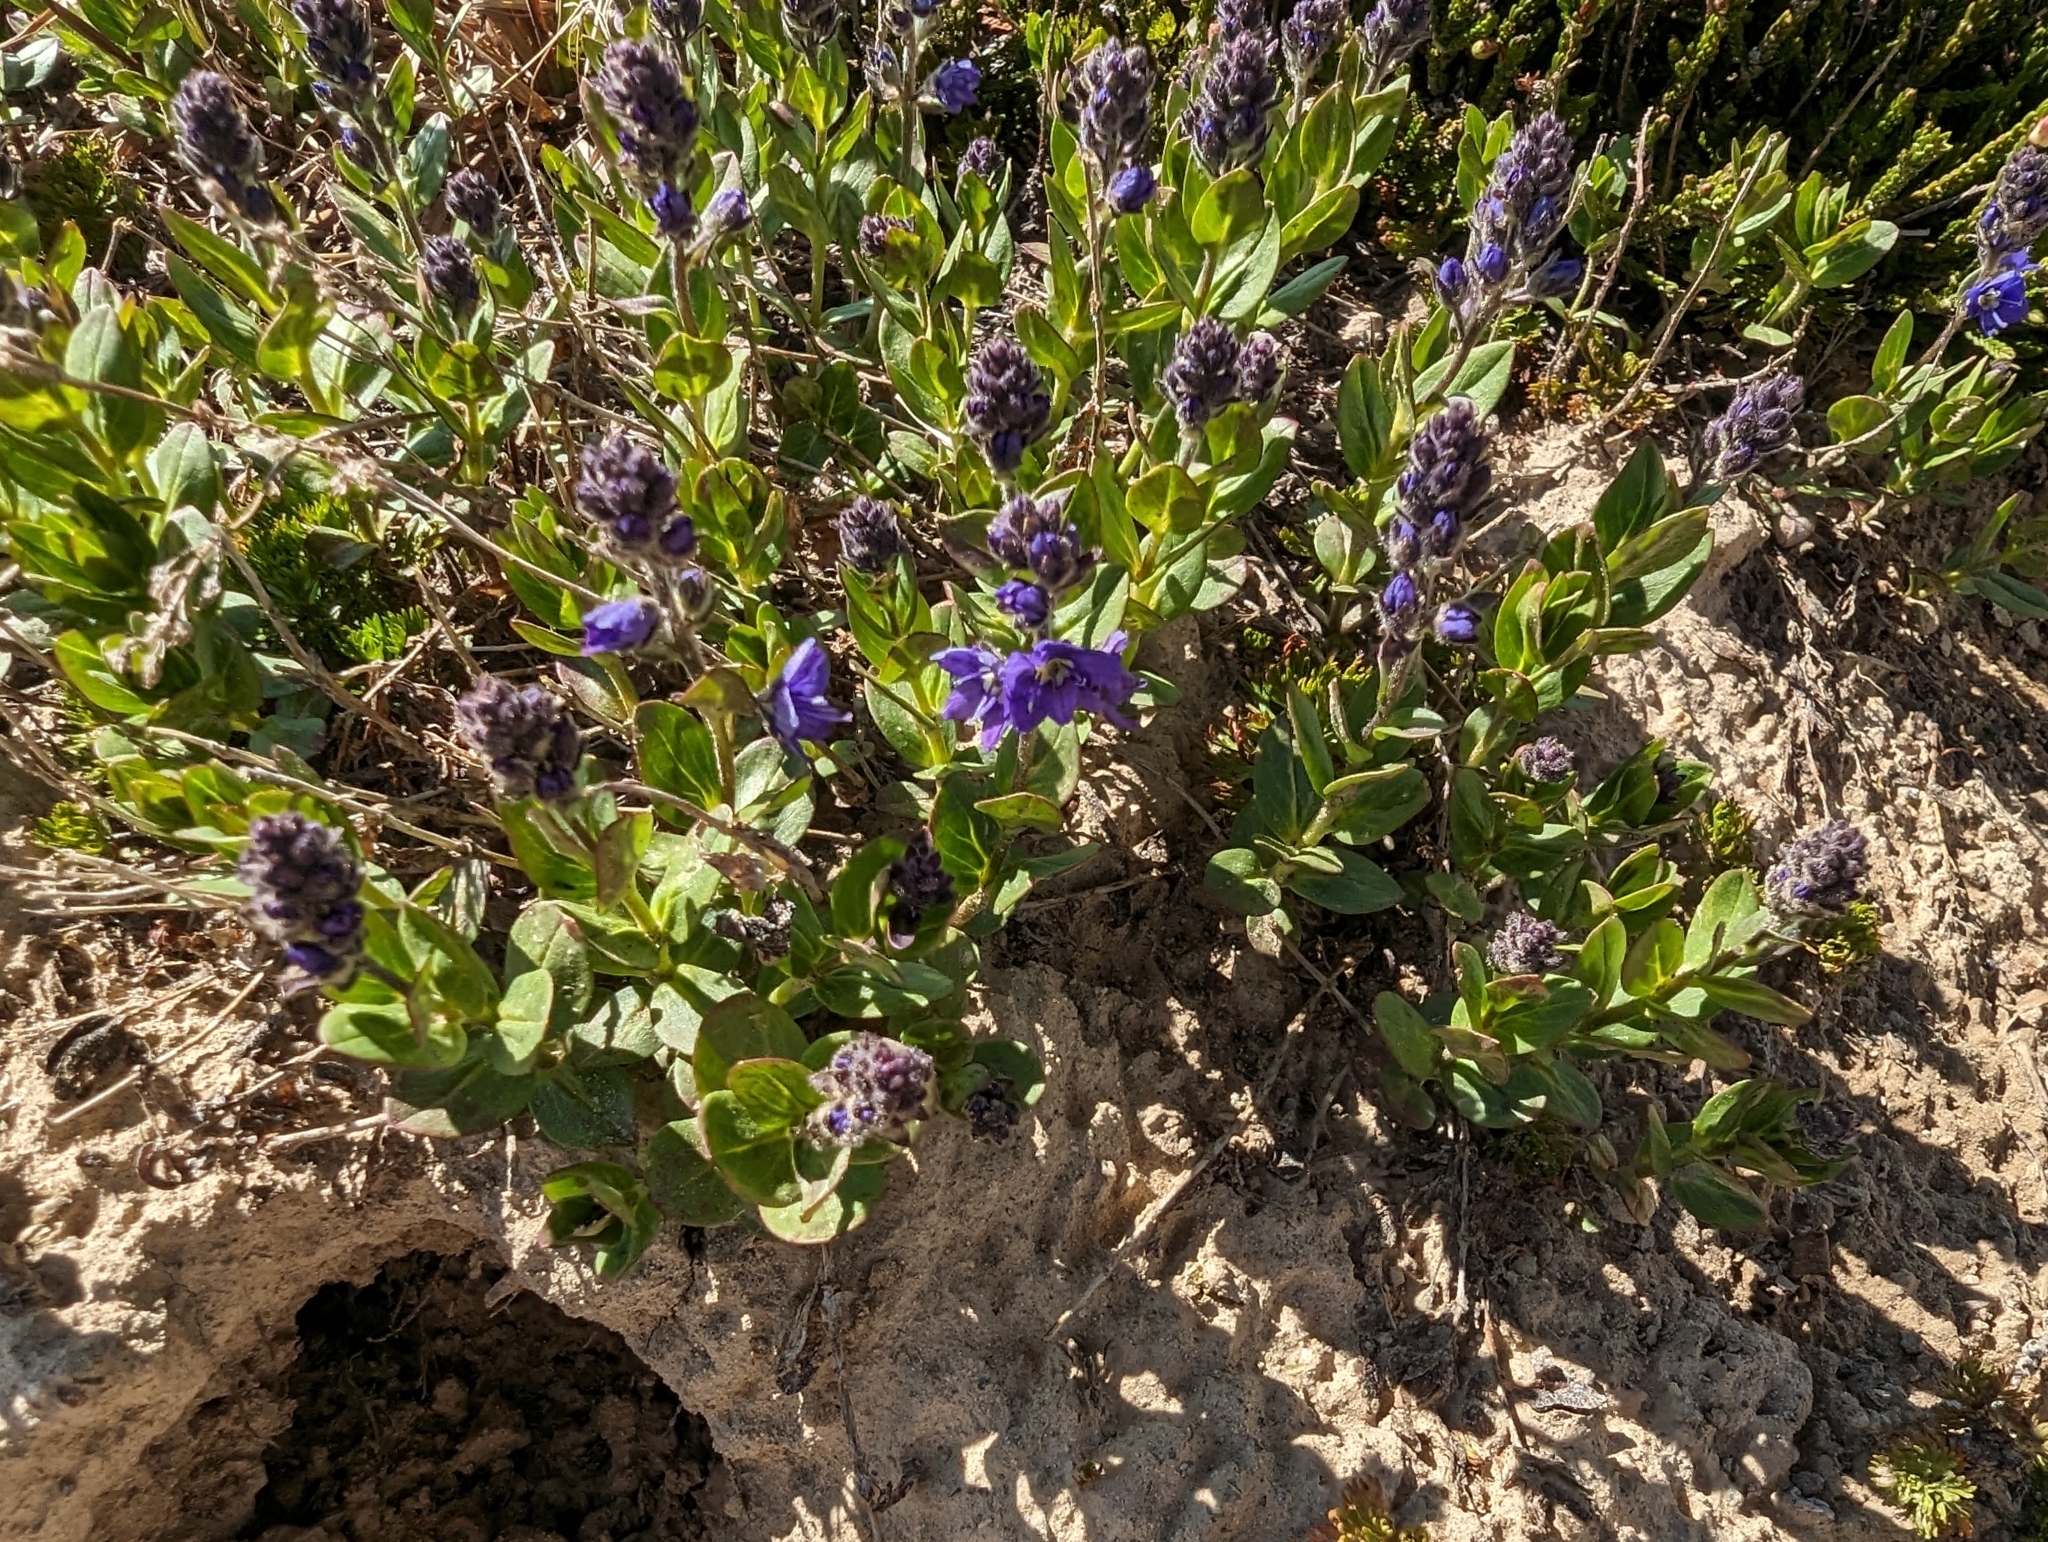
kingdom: Plantae
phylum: Tracheophyta
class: Magnoliopsida
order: Lamiales
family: Plantaginaceae
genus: Veronica
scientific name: Veronica cusickii
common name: Cusick's speedwell
